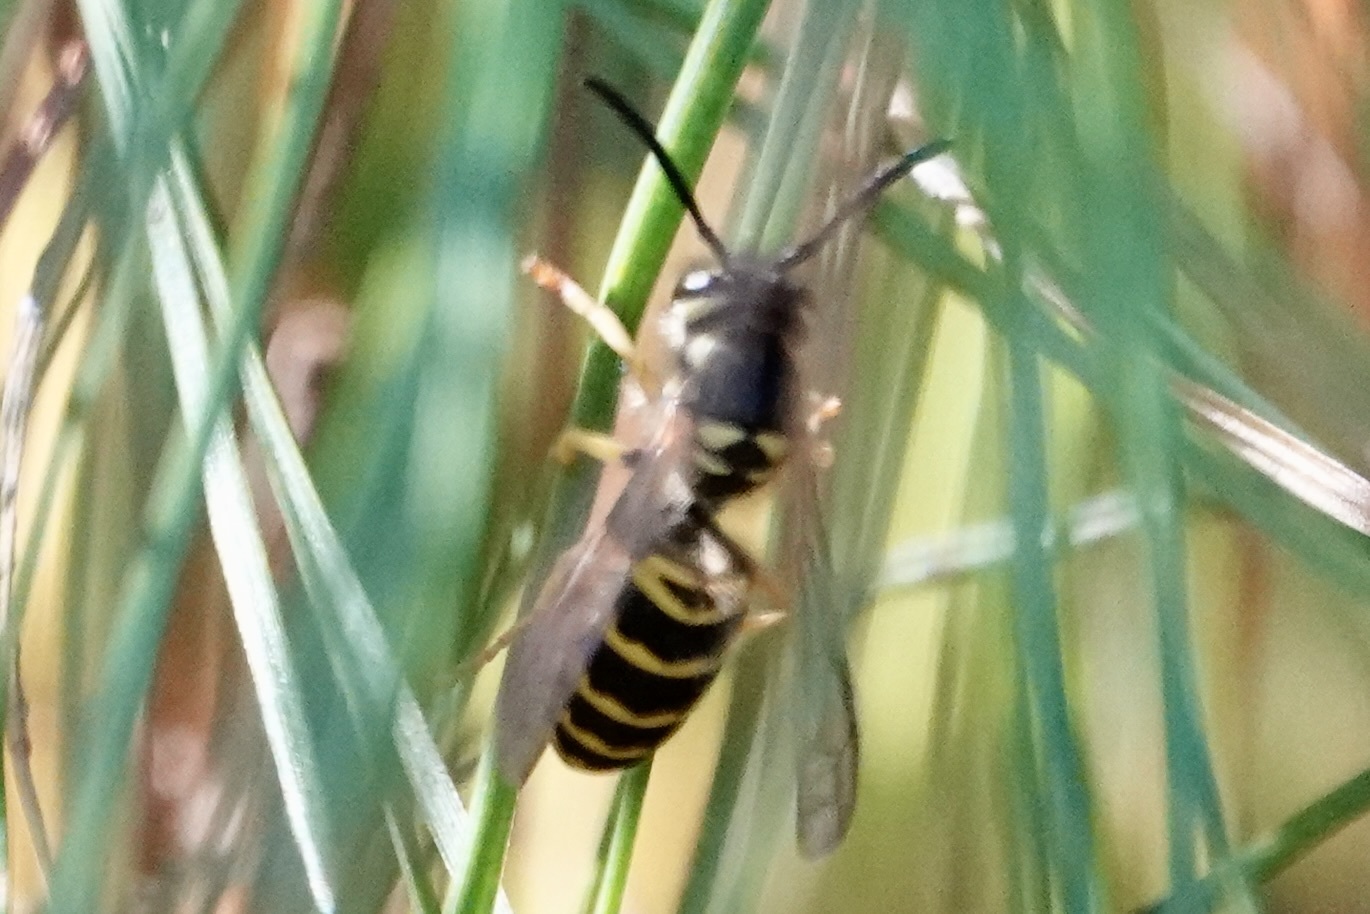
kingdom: Animalia
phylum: Arthropoda
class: Insecta
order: Hymenoptera
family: Vespidae
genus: Vespula
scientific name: Vespula maculifrons
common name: Eastern yellowjacket
